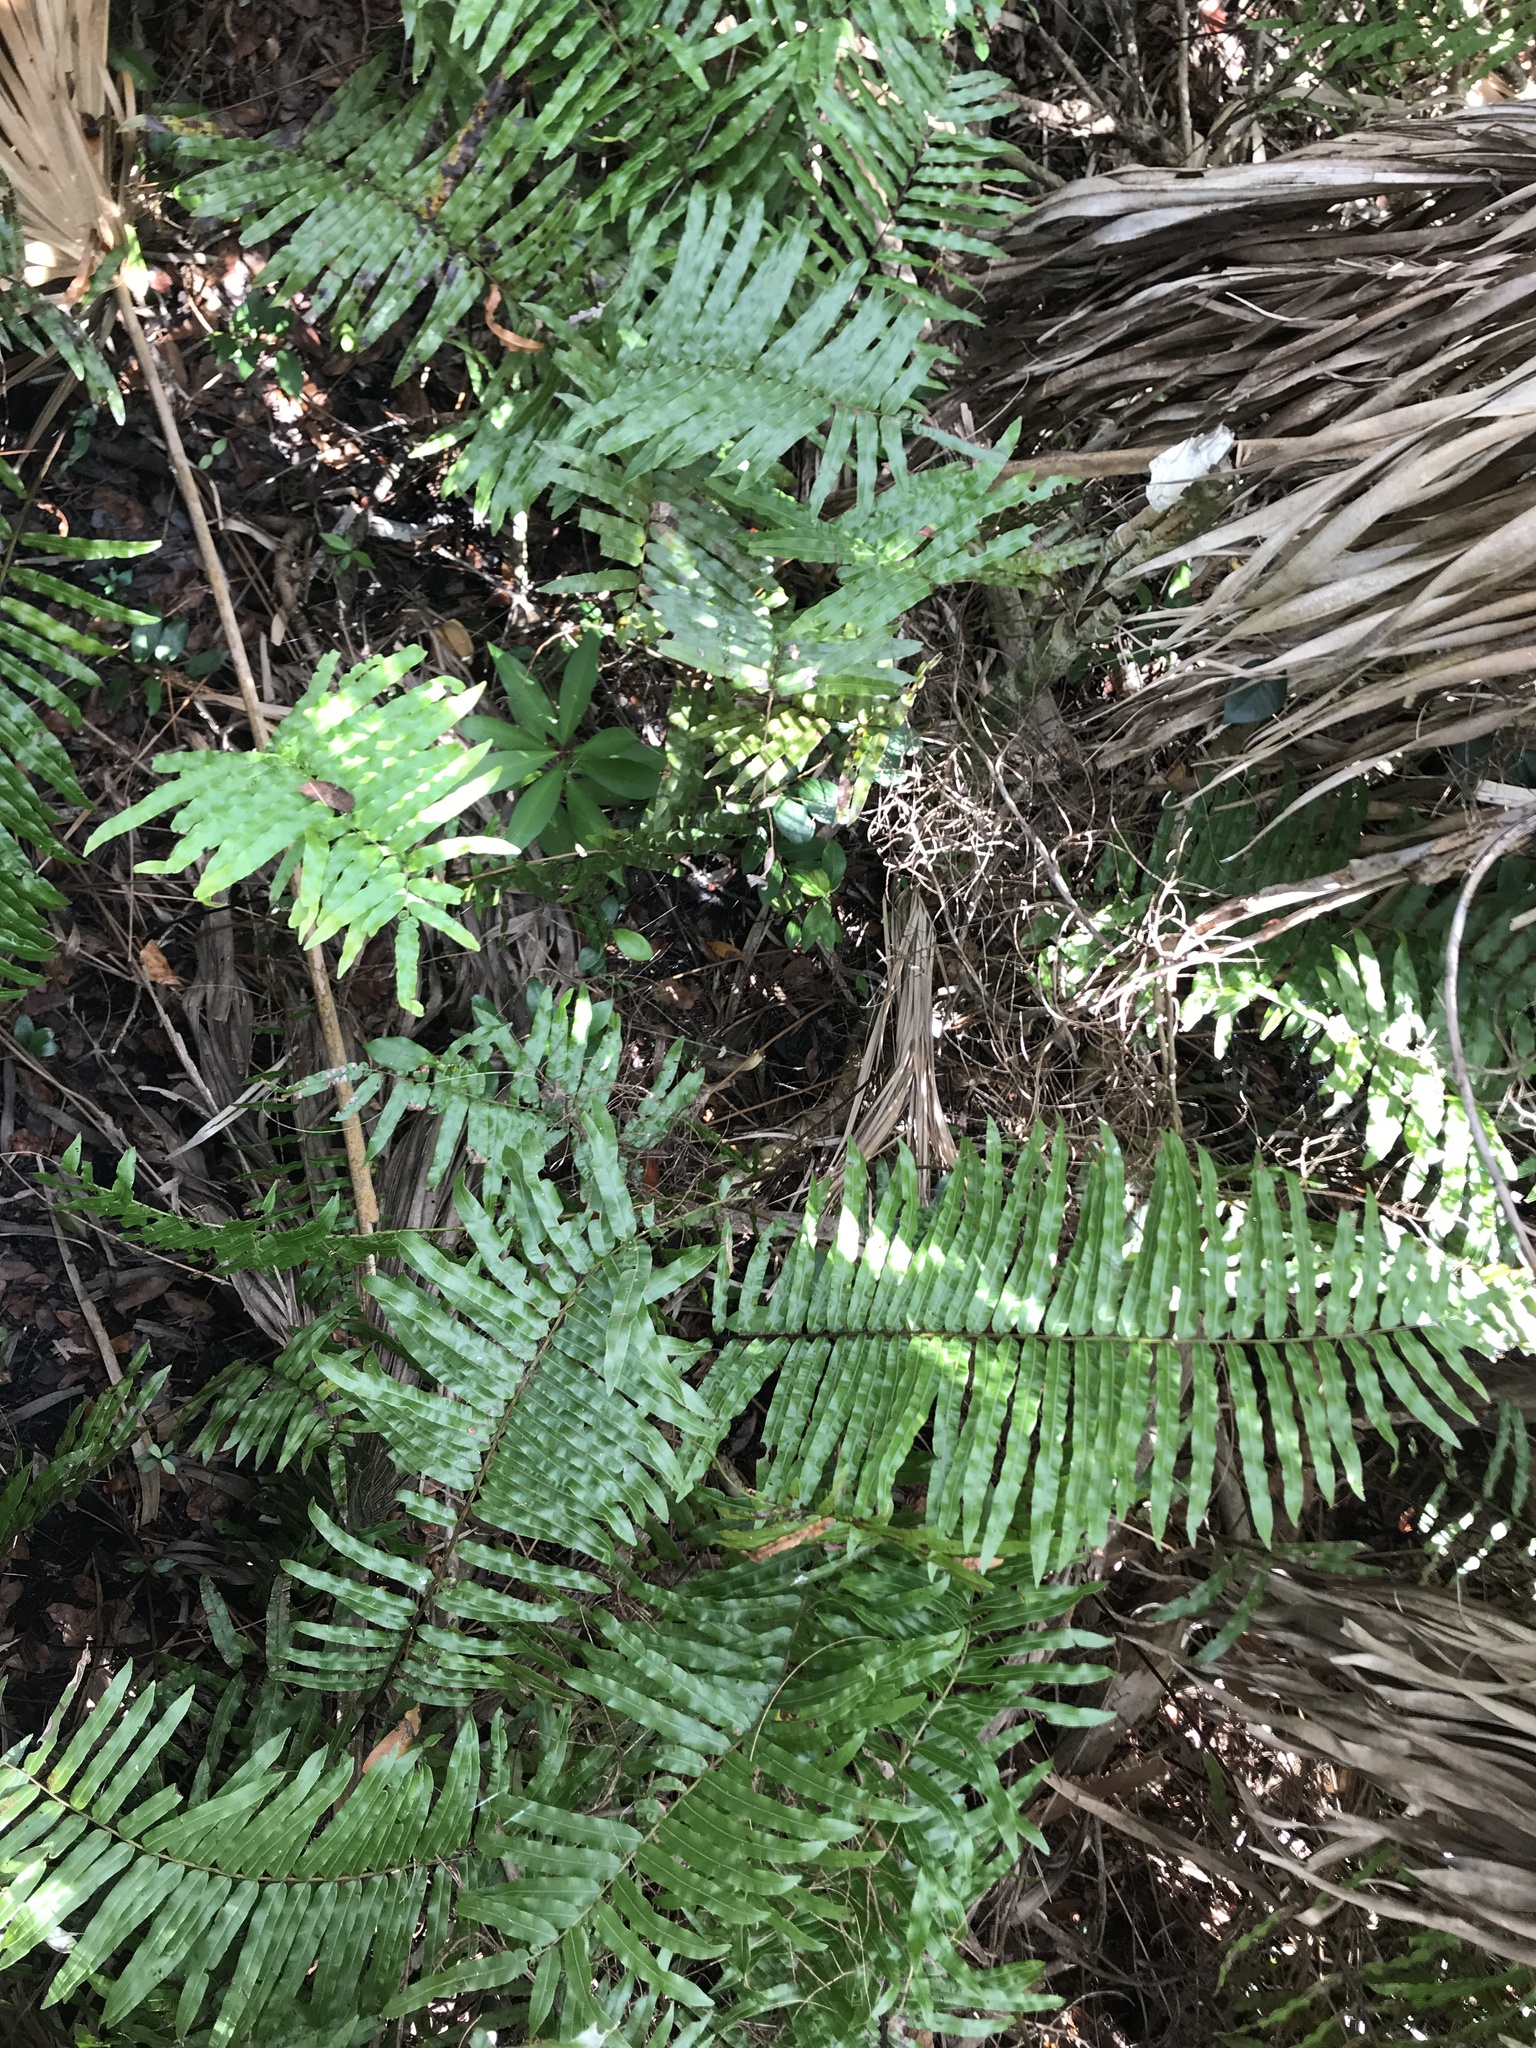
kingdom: Plantae
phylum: Tracheophyta
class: Polypodiopsida
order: Polypodiales
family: Blechnaceae
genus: Telmatoblechnum
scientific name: Telmatoblechnum serrulatum
